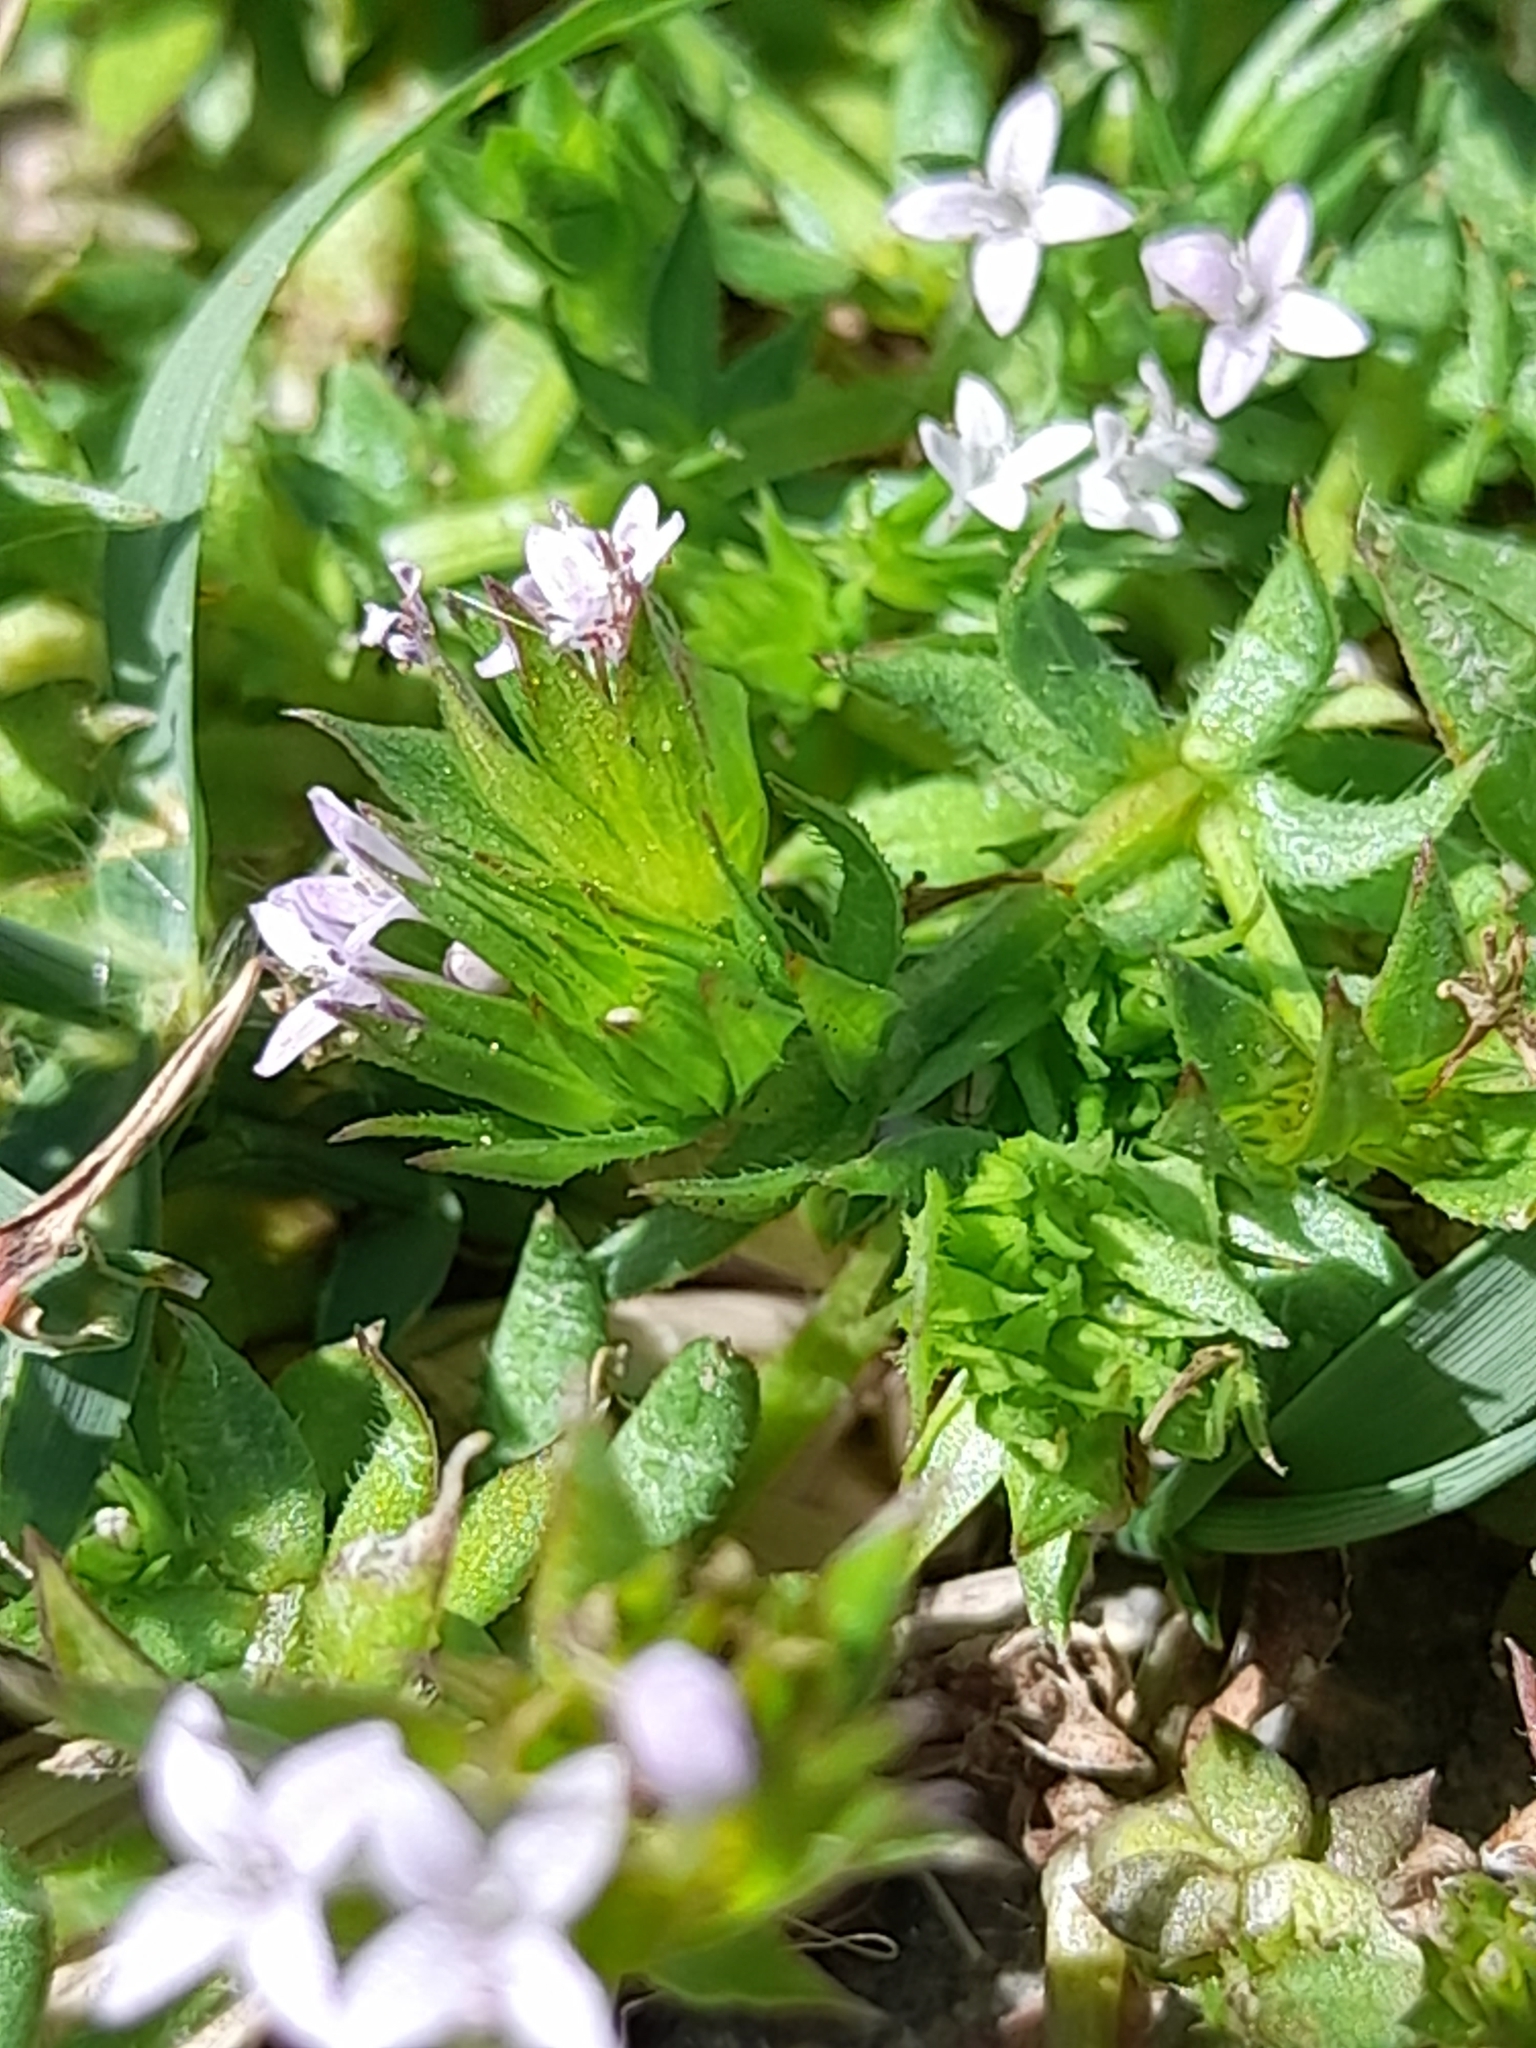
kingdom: Plantae
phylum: Tracheophyta
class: Magnoliopsida
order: Gentianales
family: Rubiaceae
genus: Sherardia
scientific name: Sherardia arvensis
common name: Field madder
